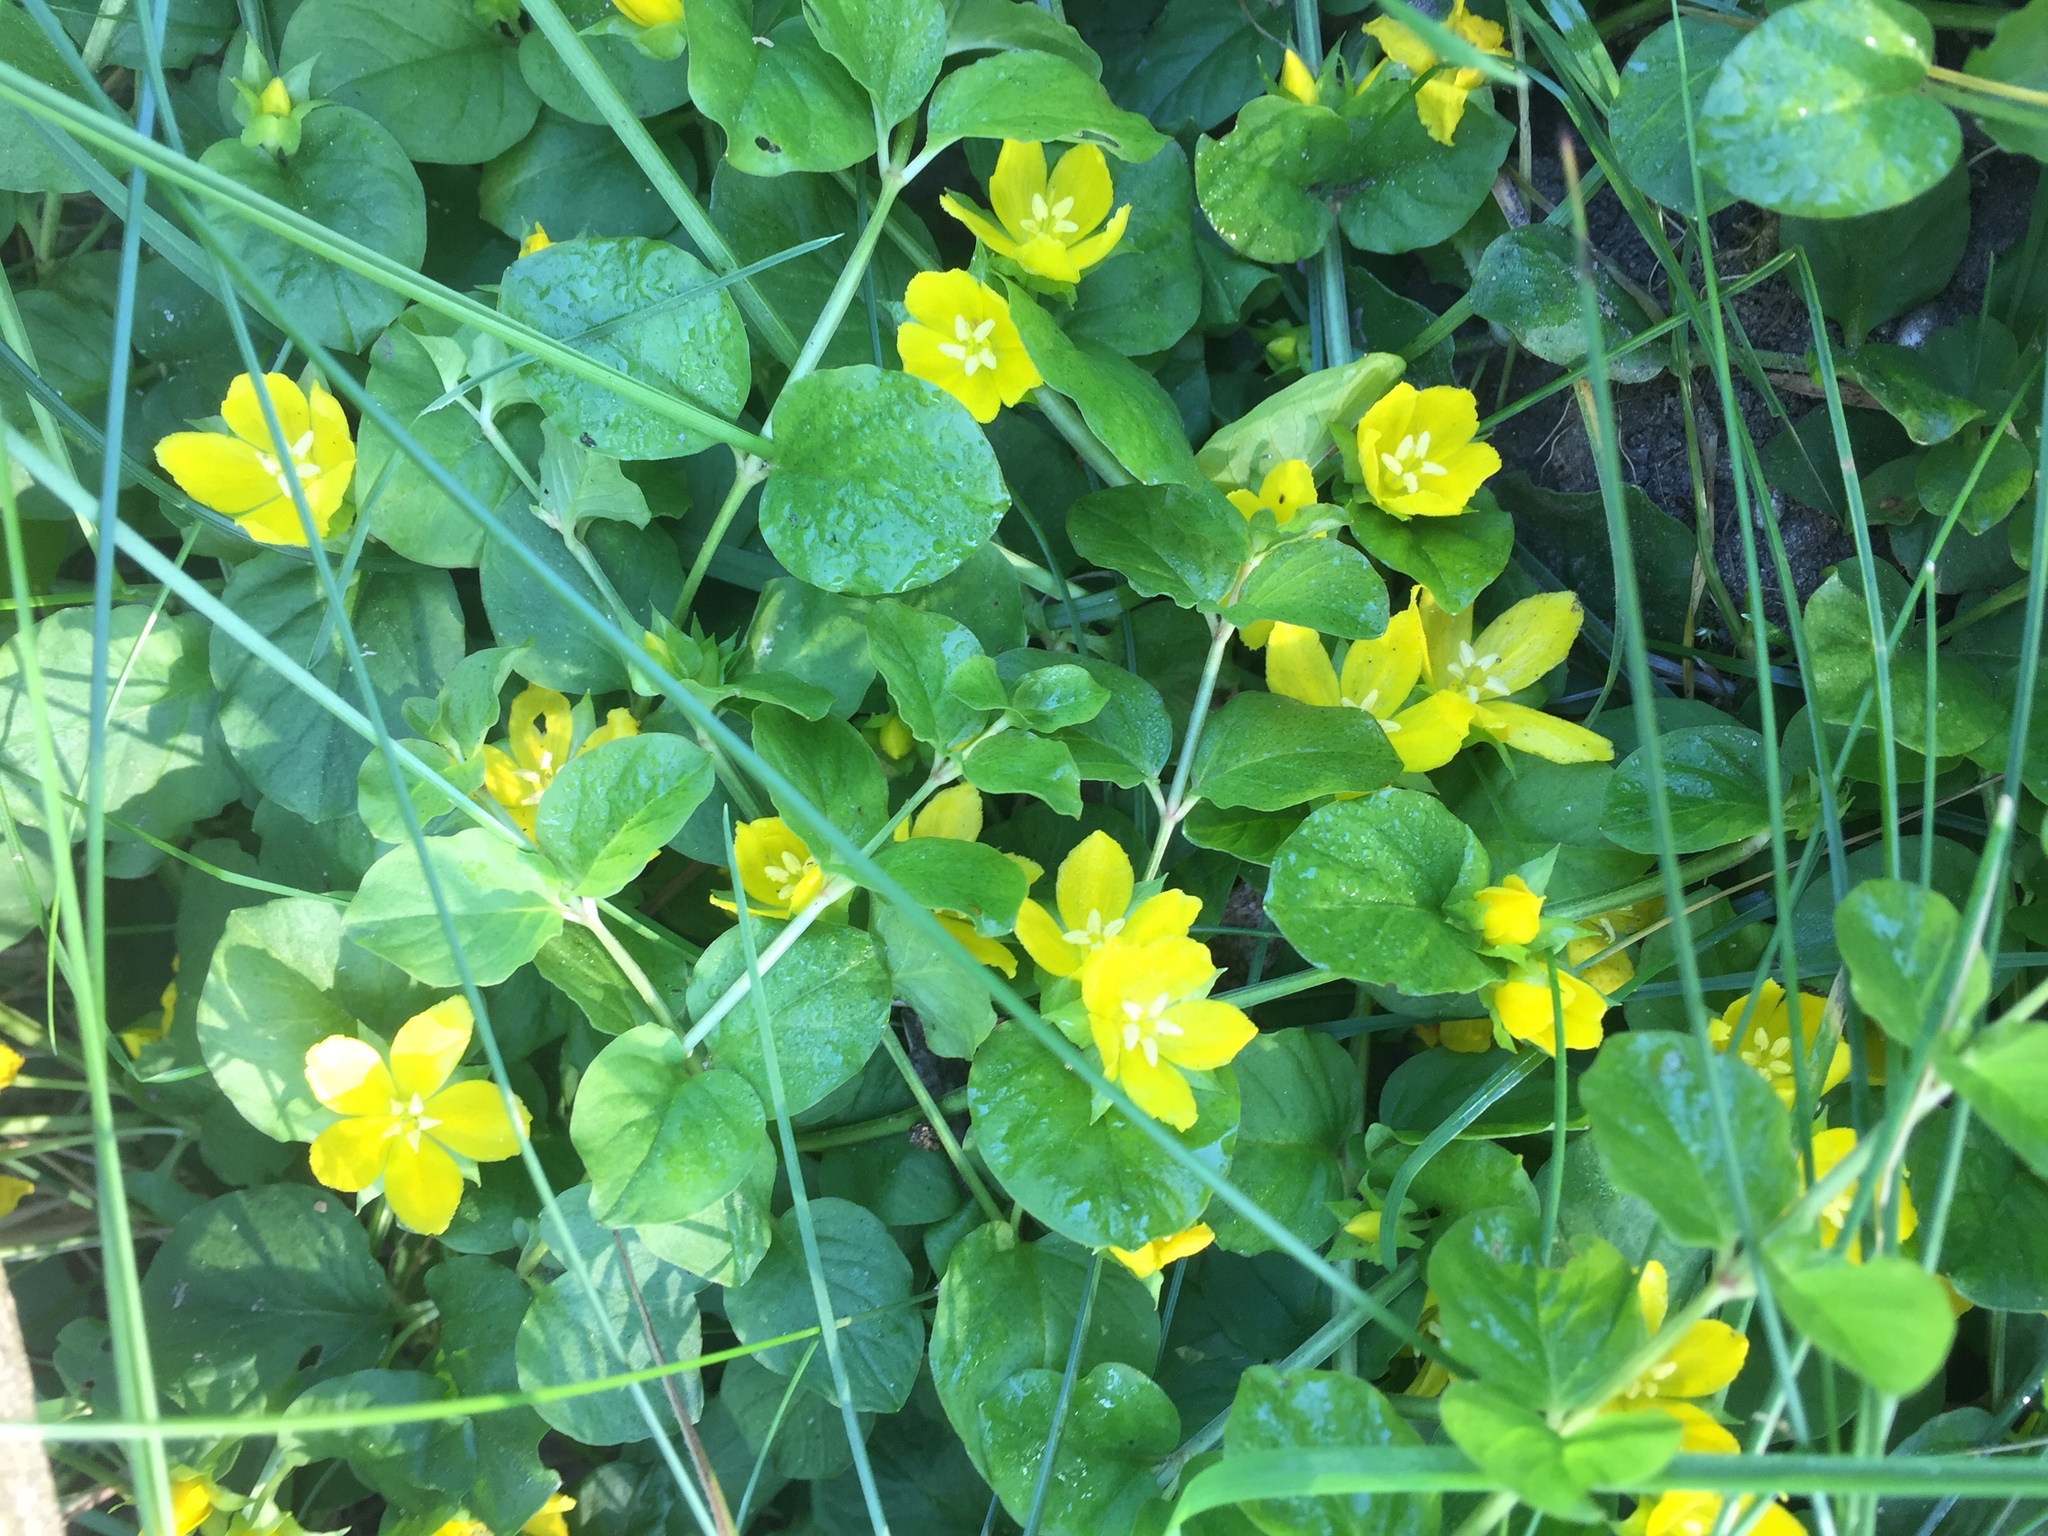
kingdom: Plantae
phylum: Tracheophyta
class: Magnoliopsida
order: Ericales
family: Primulaceae
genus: Lysimachia
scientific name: Lysimachia nummularia
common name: Moneywort
